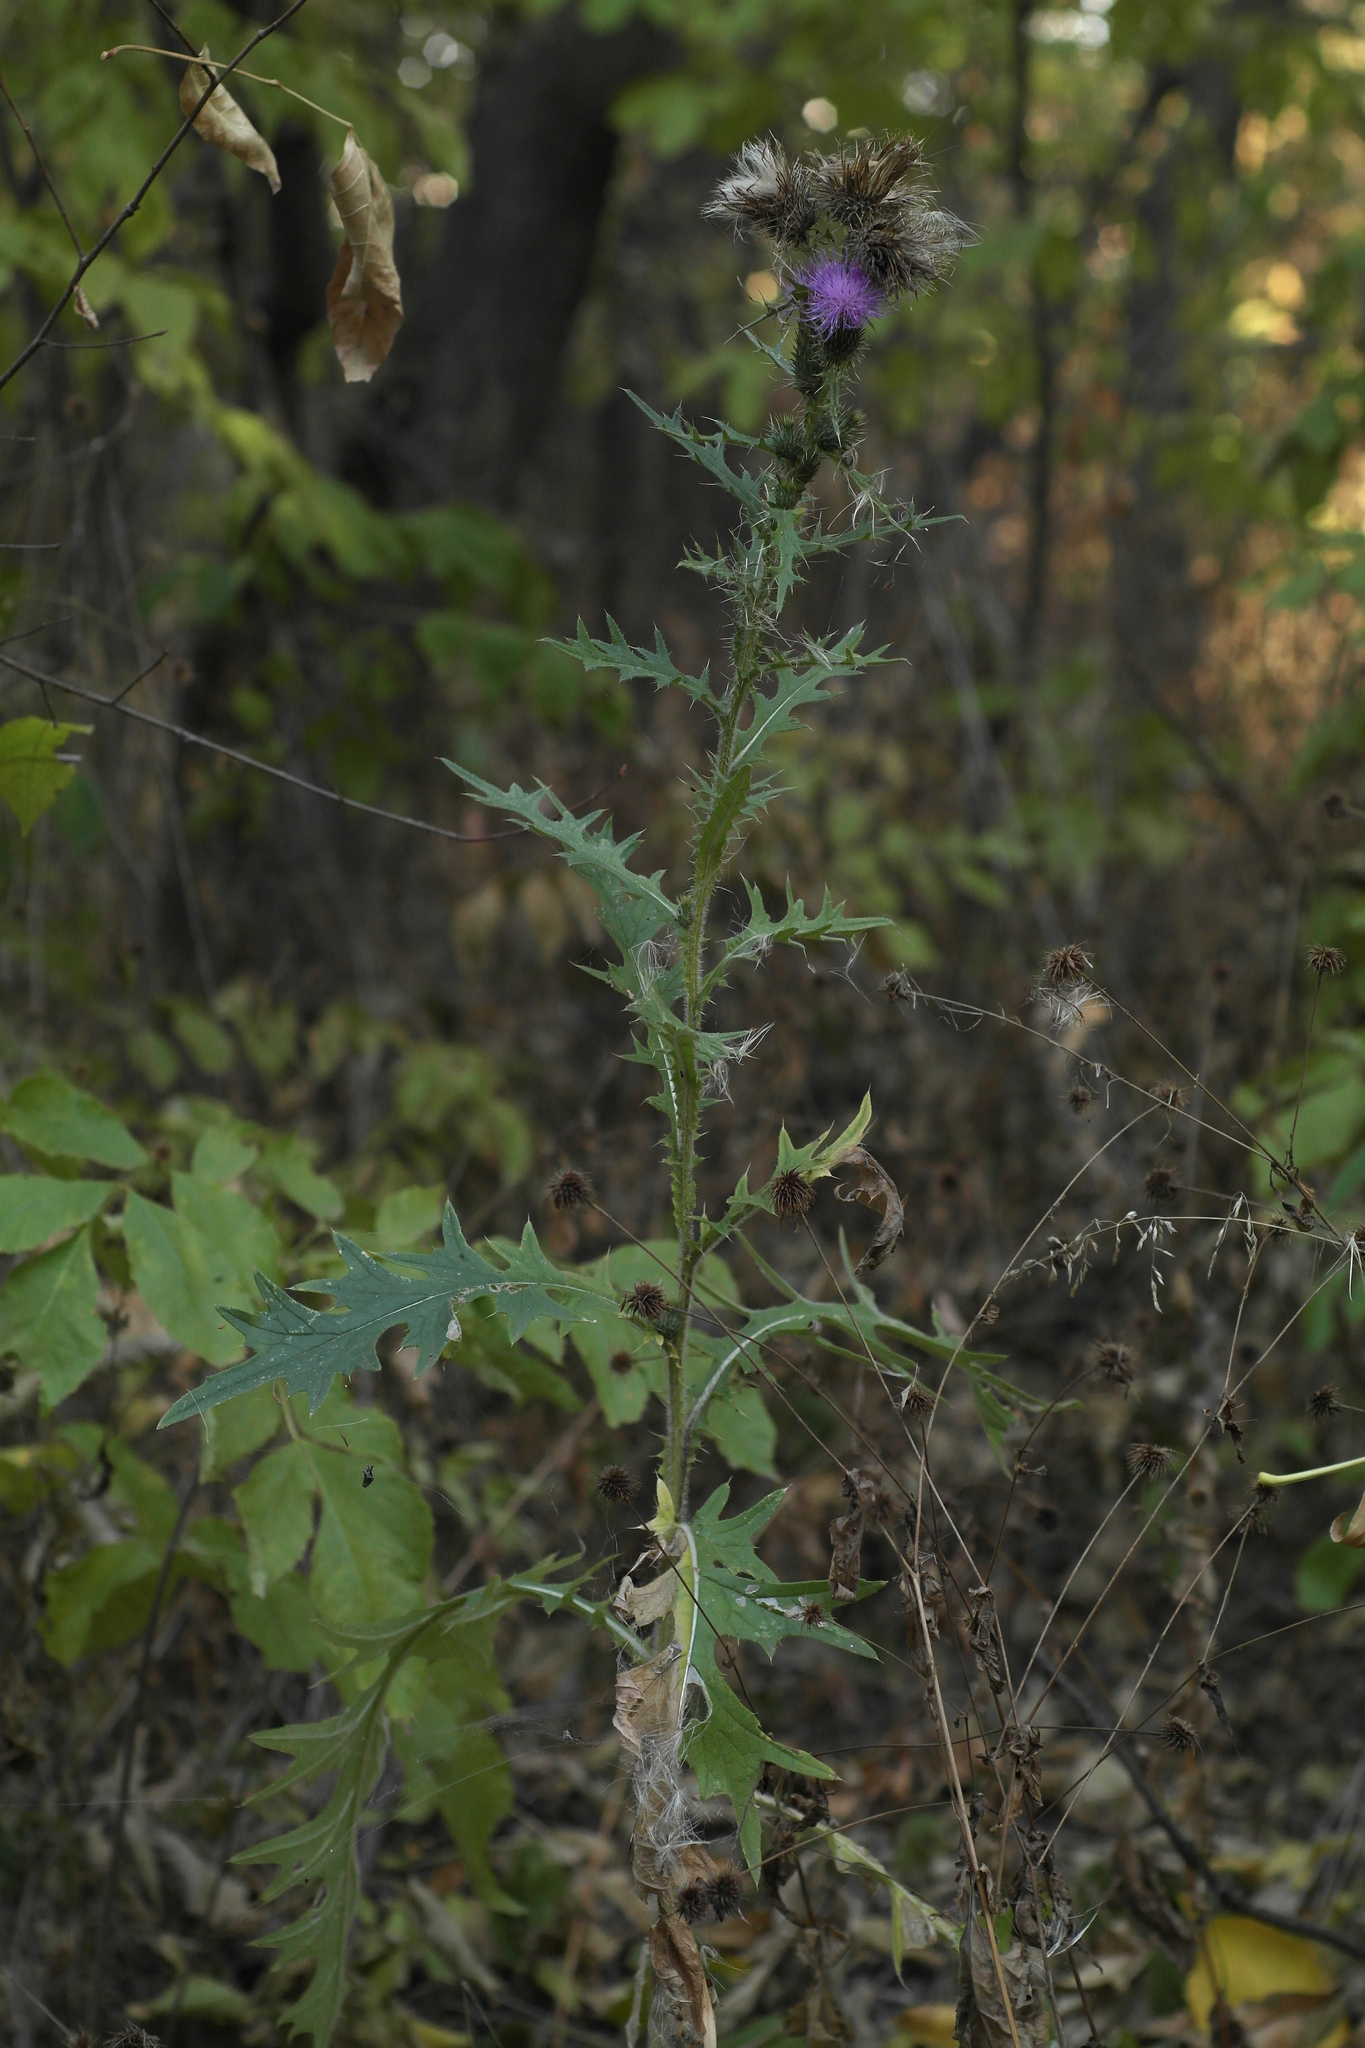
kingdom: Plantae
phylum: Tracheophyta
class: Magnoliopsida
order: Asterales
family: Asteraceae
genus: Cirsium
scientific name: Cirsium vulgare
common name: Bull thistle
